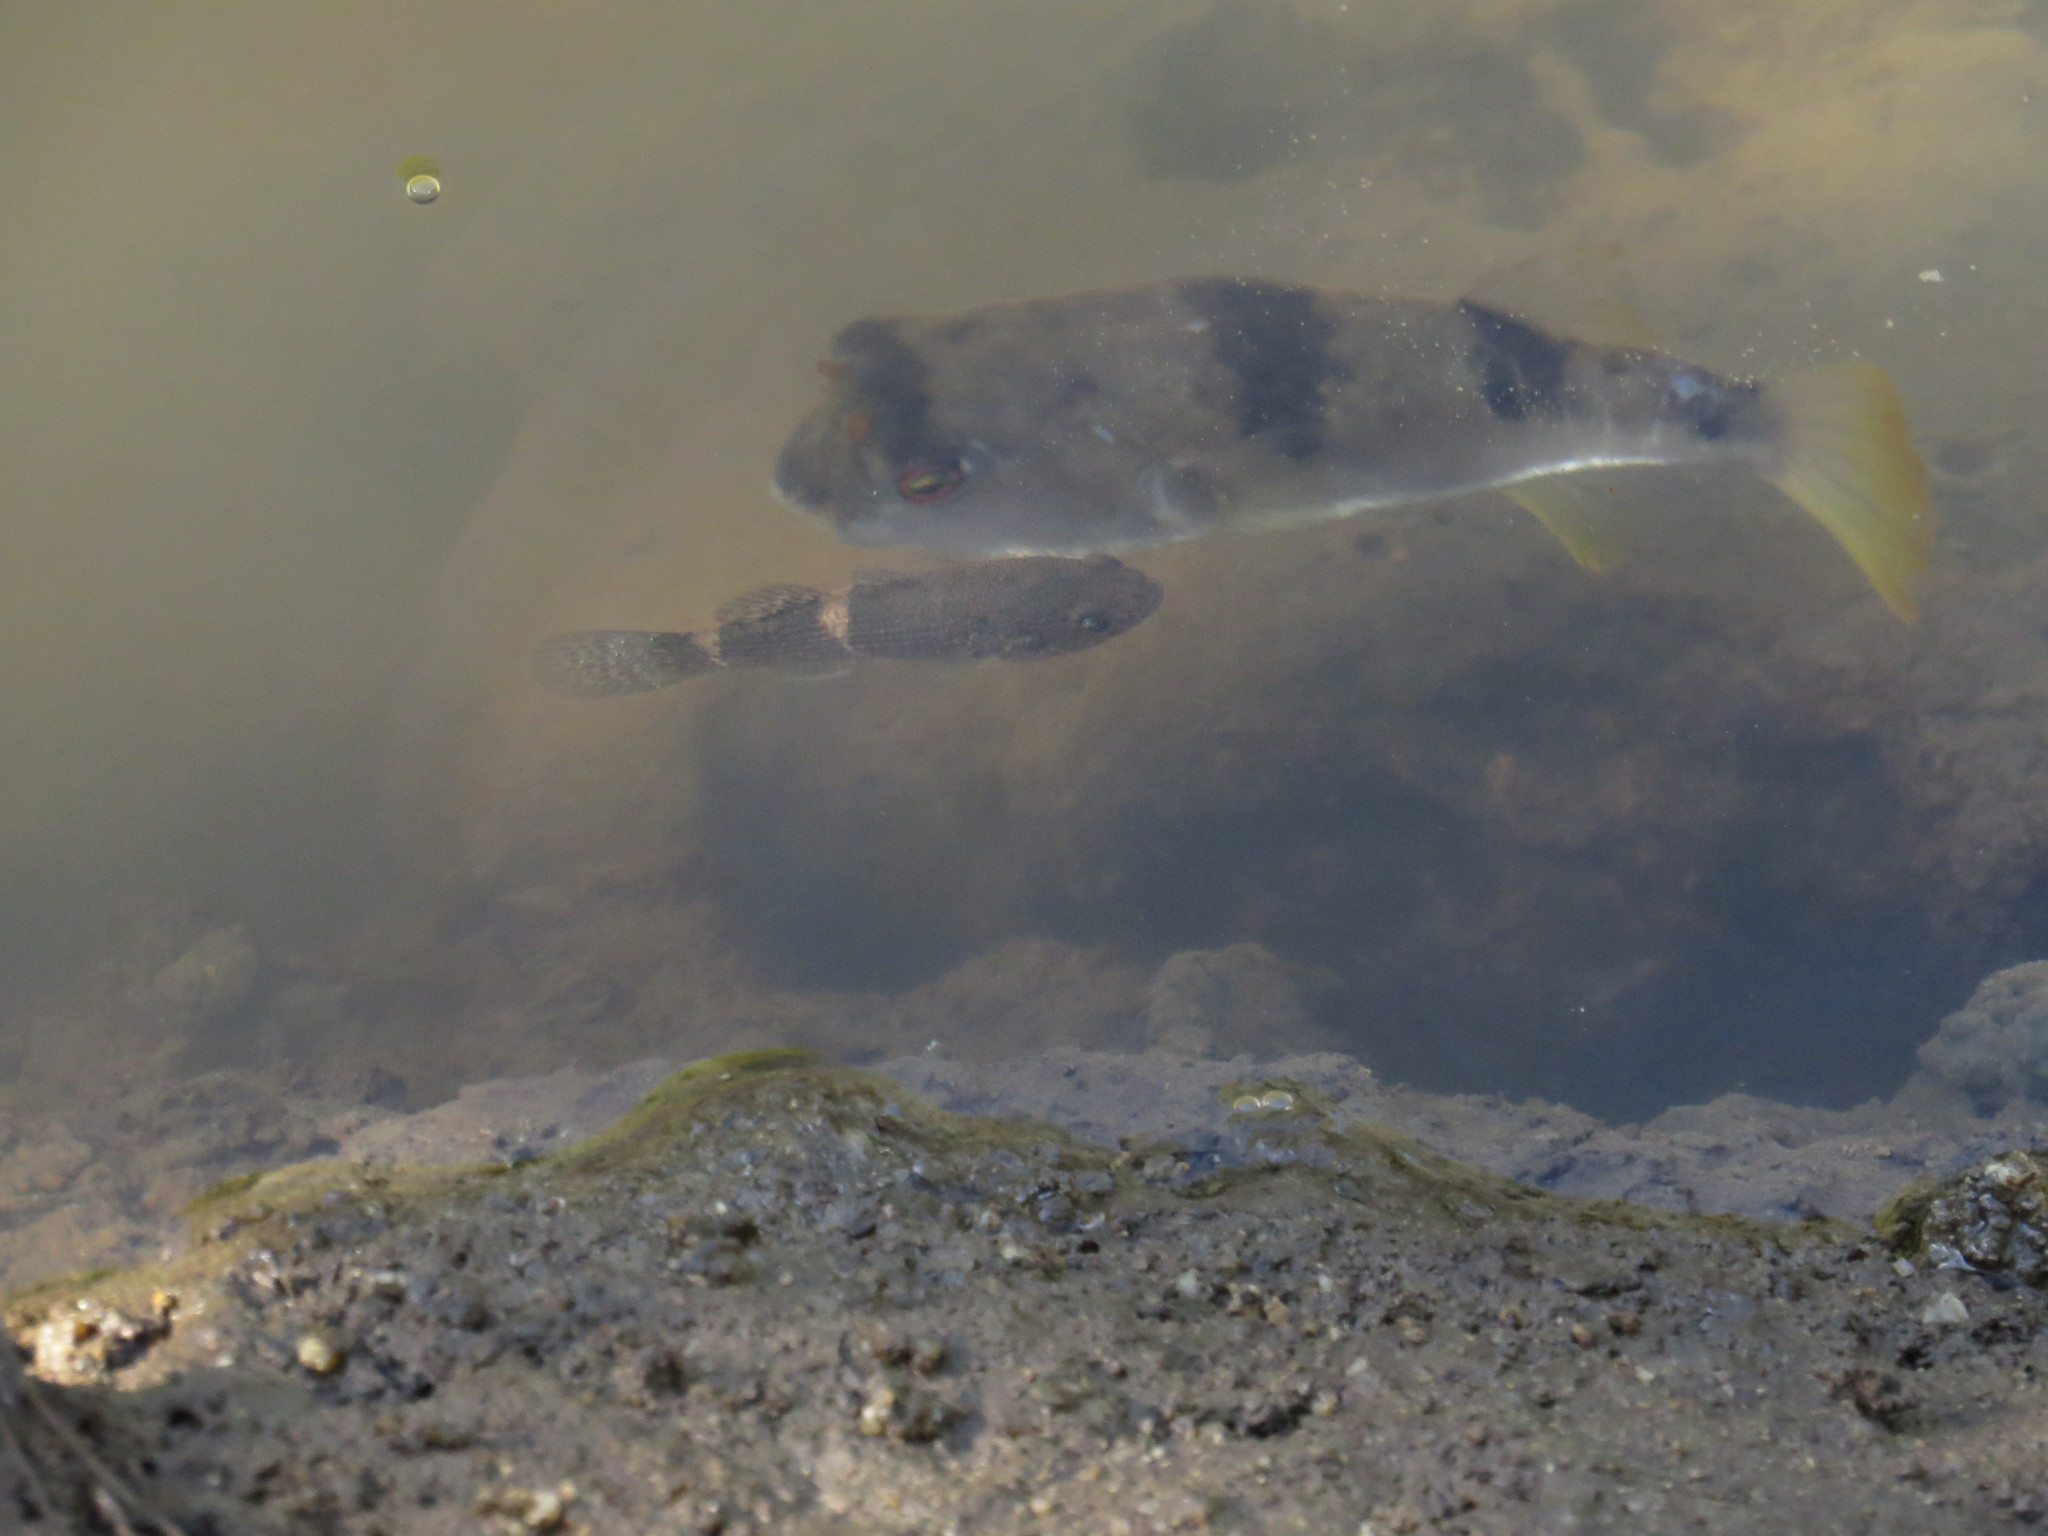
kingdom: Animalia
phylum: Chordata
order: Tetraodontiformes
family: Tetraodontidae
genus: Marilyna
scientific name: Marilyna pleurosticta
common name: Banded toadfish
